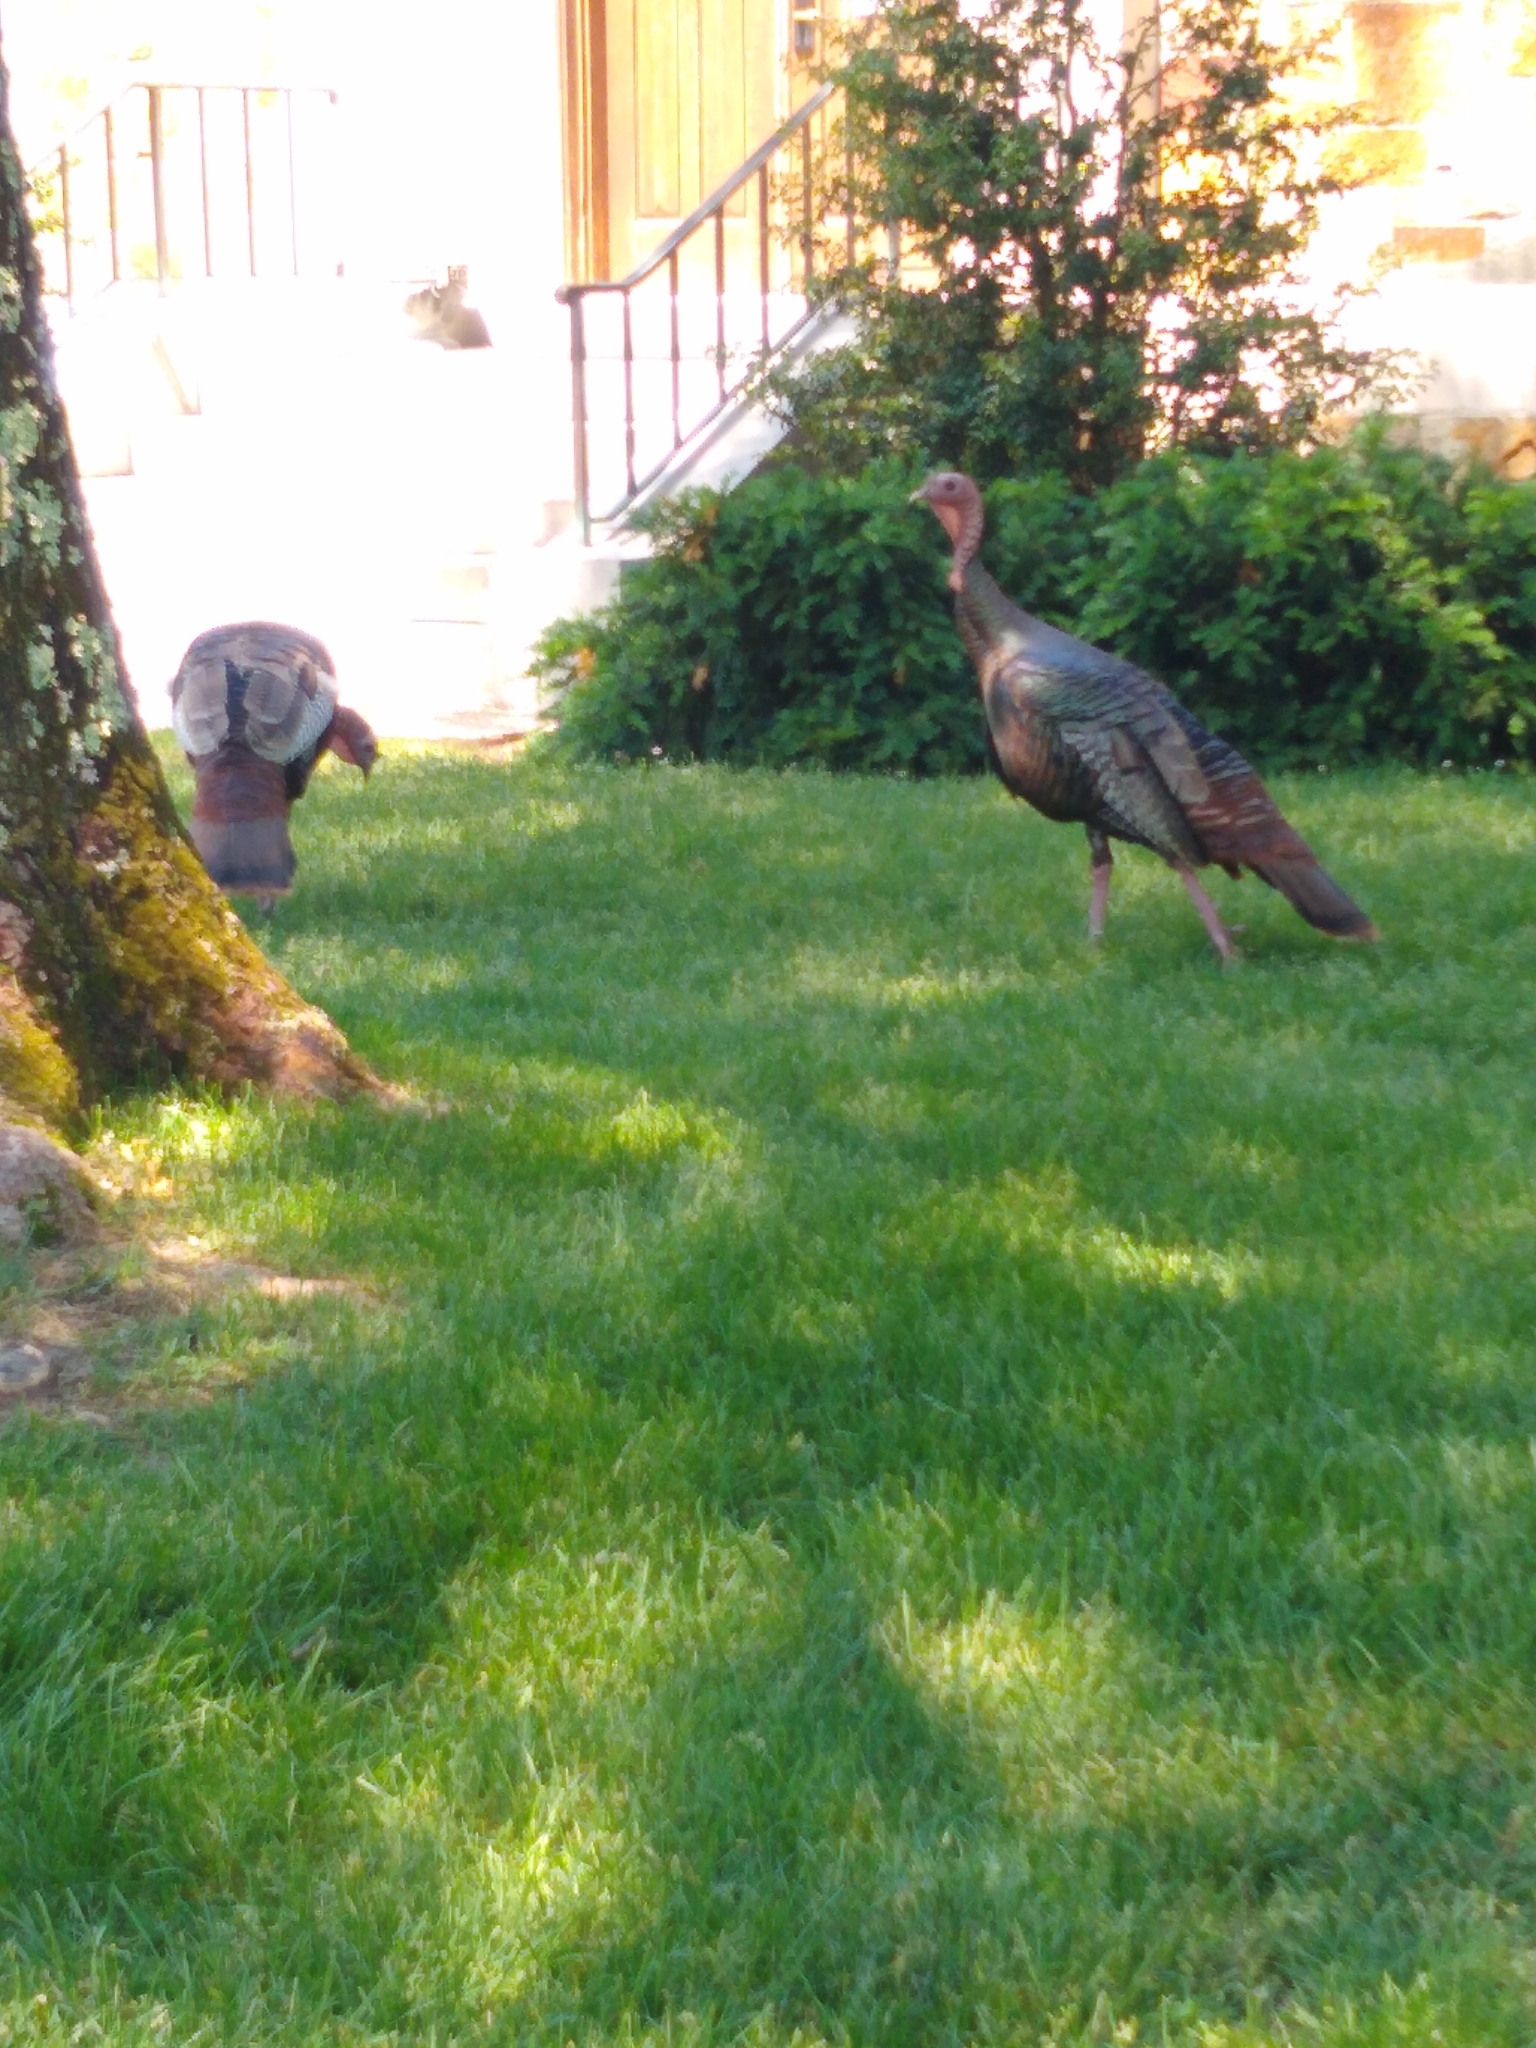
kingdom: Animalia
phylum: Chordata
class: Aves
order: Galliformes
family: Phasianidae
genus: Meleagris
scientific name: Meleagris gallopavo
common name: Wild turkey
